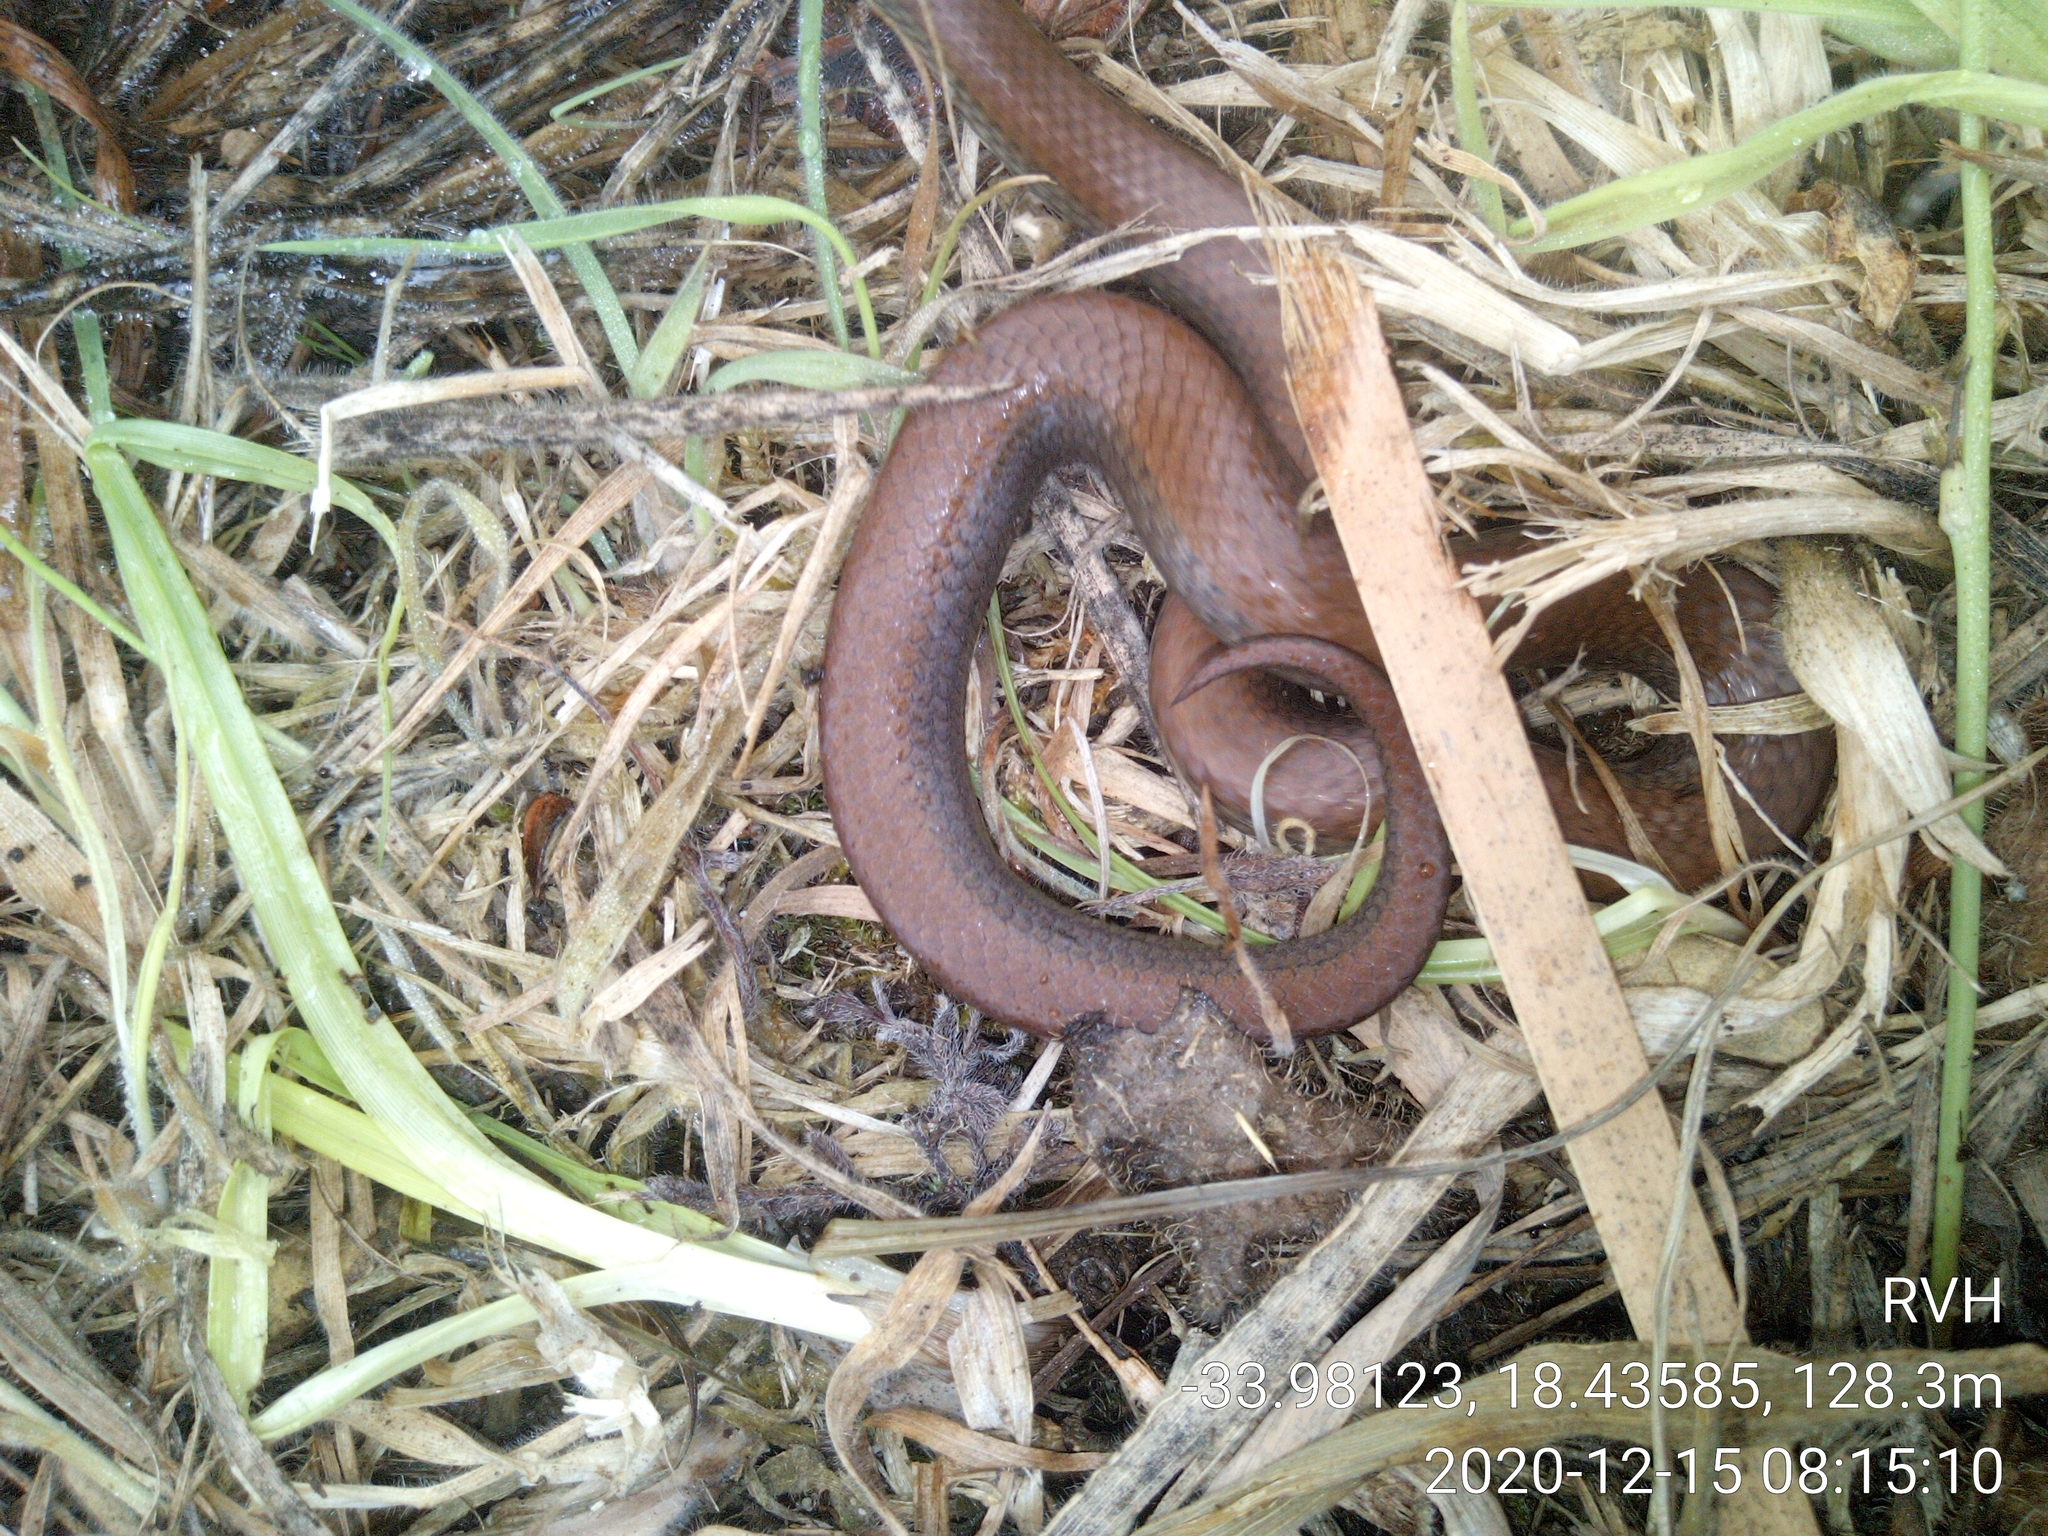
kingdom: Animalia
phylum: Chordata
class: Squamata
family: Pseudoxyrhophiidae
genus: Duberria
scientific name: Duberria lutrix
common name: Common slug eater
